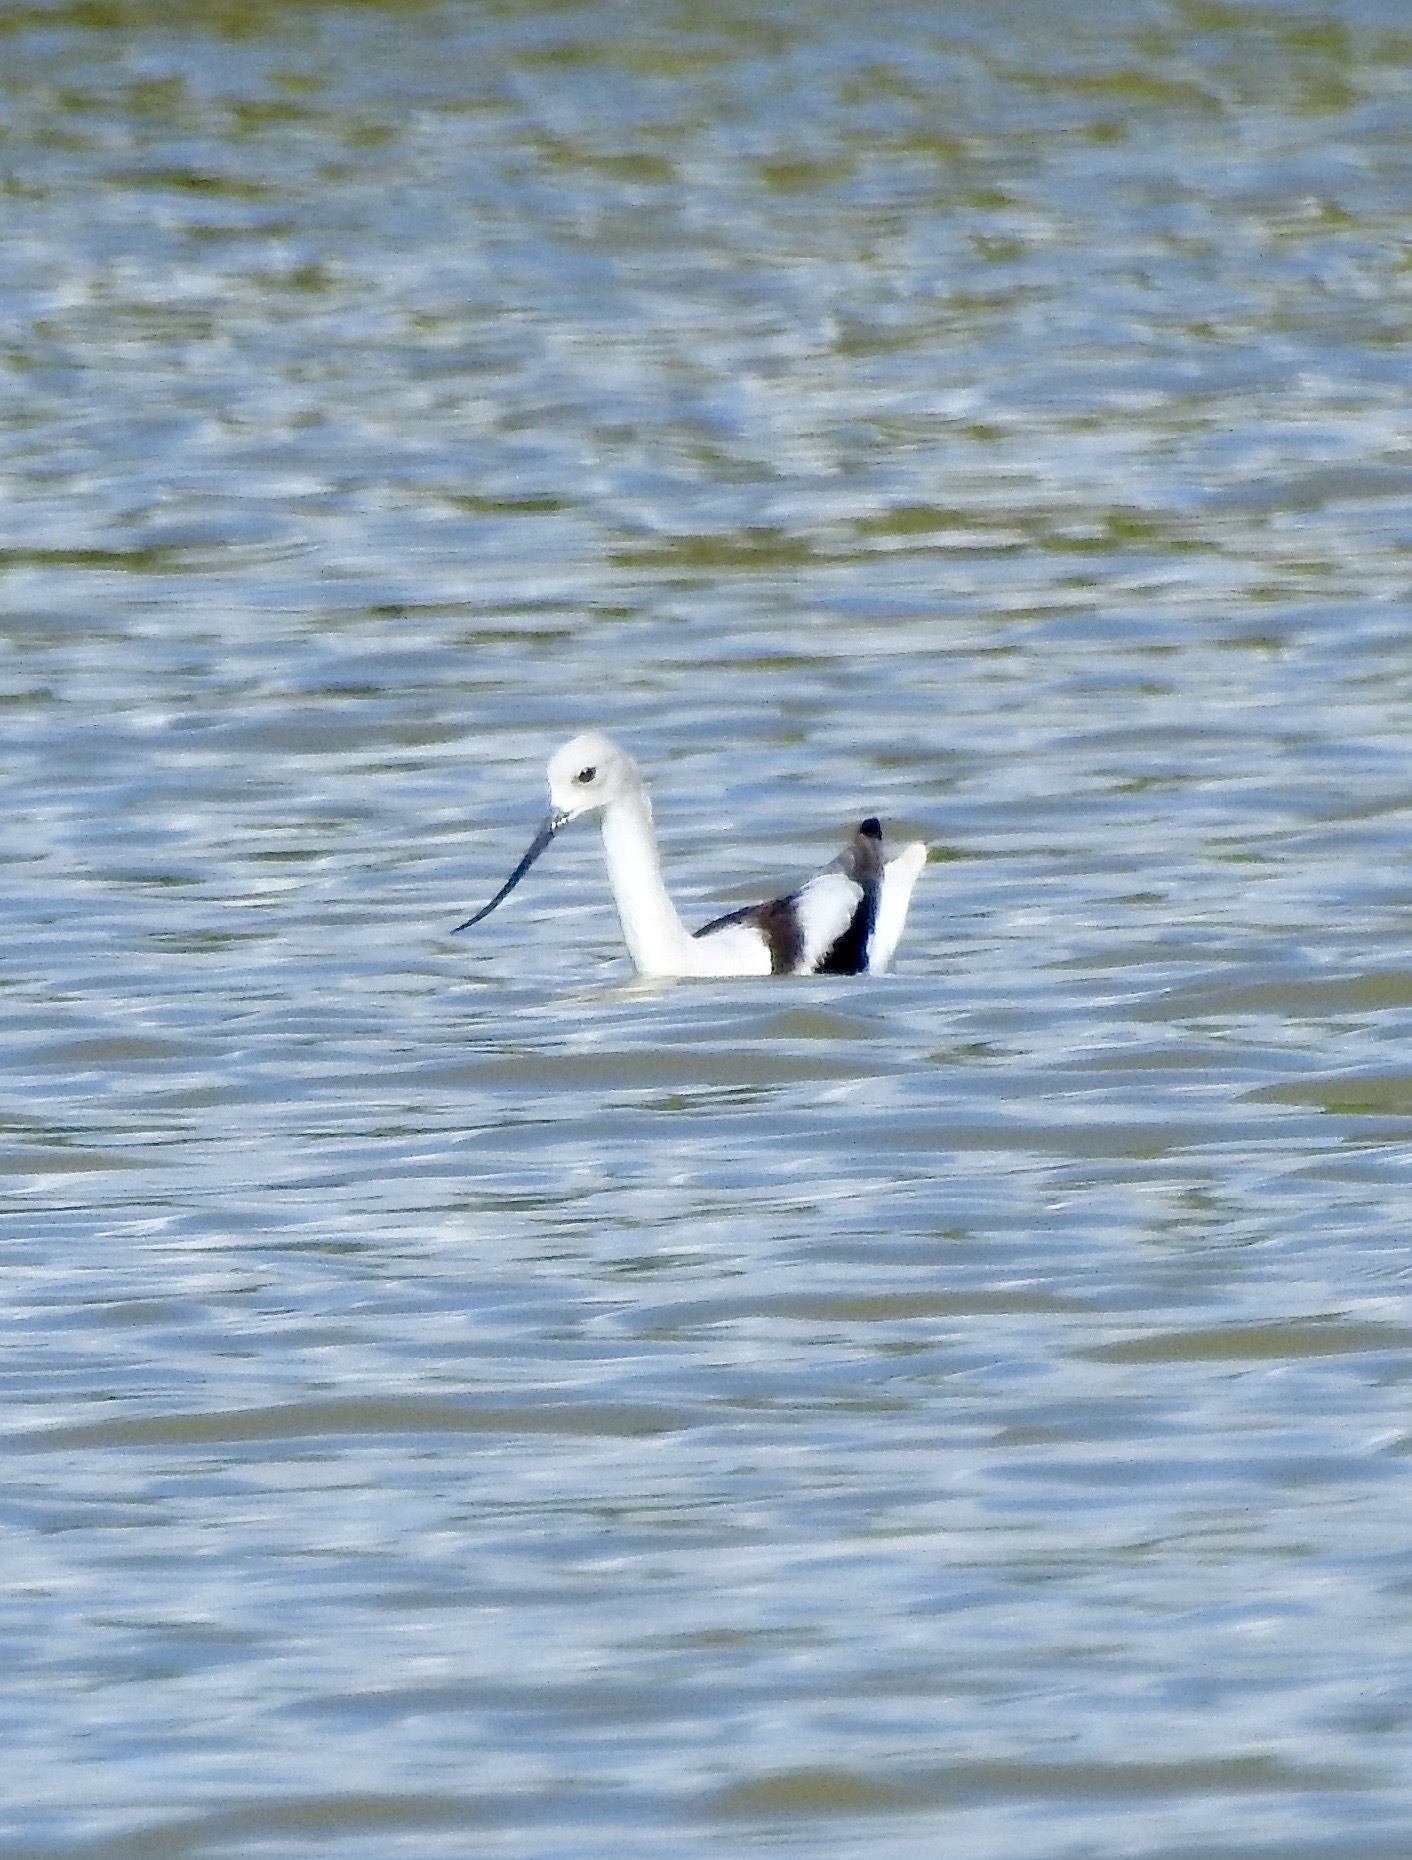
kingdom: Animalia
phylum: Chordata
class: Aves
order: Charadriiformes
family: Recurvirostridae
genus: Recurvirostra
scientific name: Recurvirostra americana
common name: American avocet
